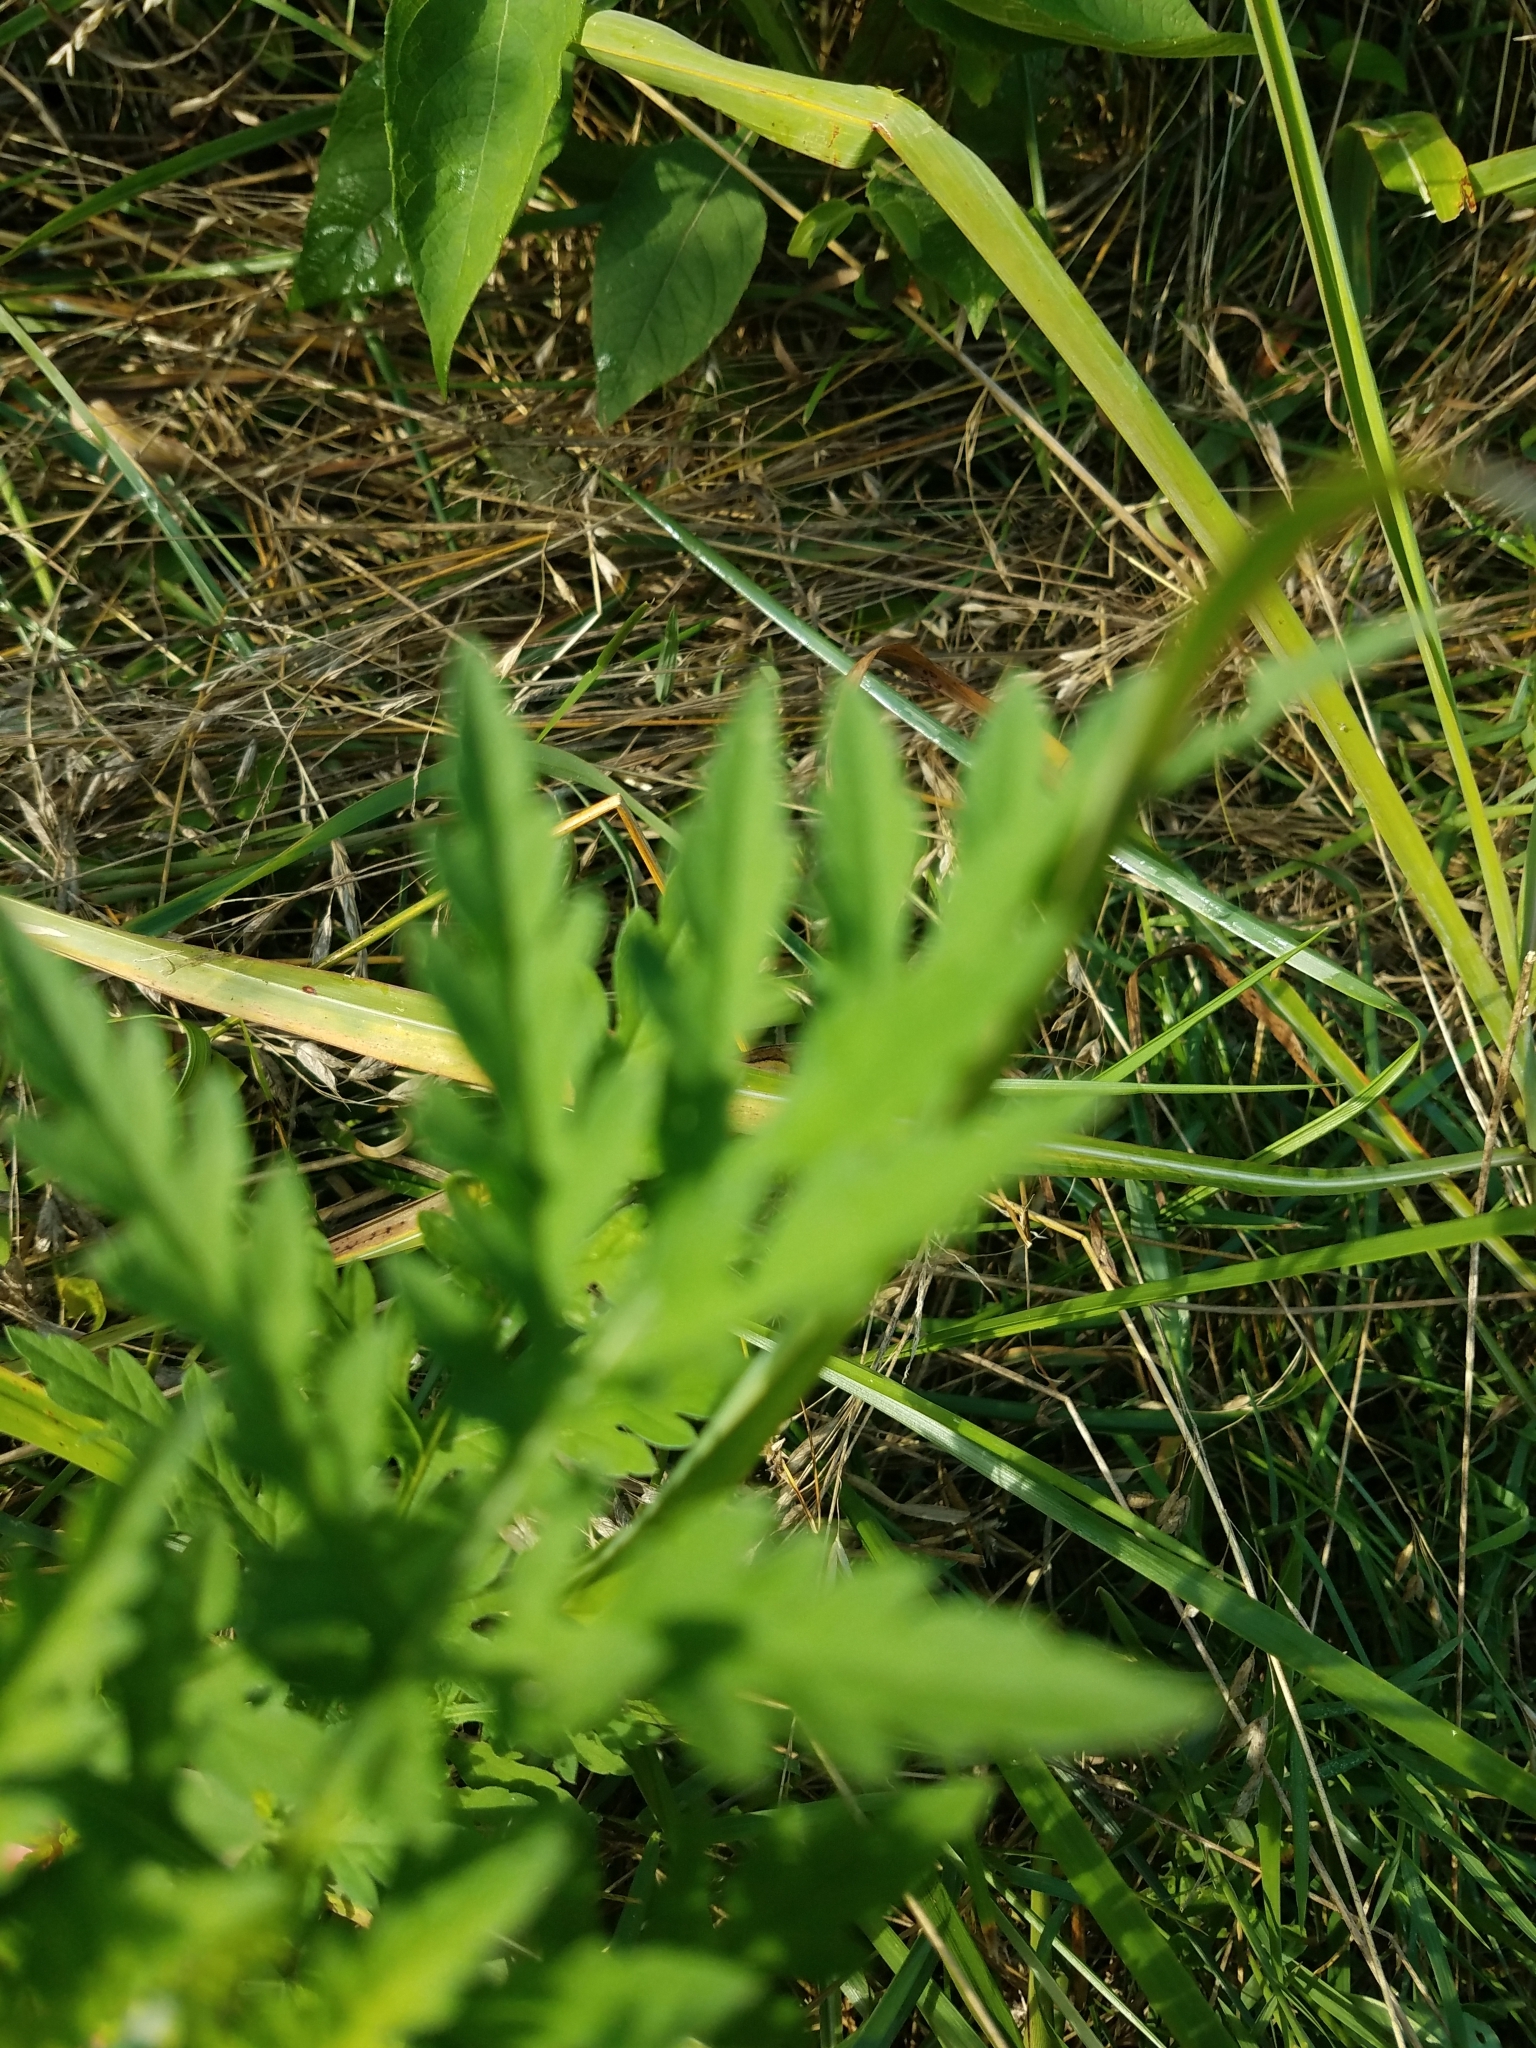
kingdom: Plantae
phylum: Tracheophyta
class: Magnoliopsida
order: Asterales
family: Asteraceae
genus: Ambrosia
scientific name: Ambrosia artemisiifolia
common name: Annual ragweed
